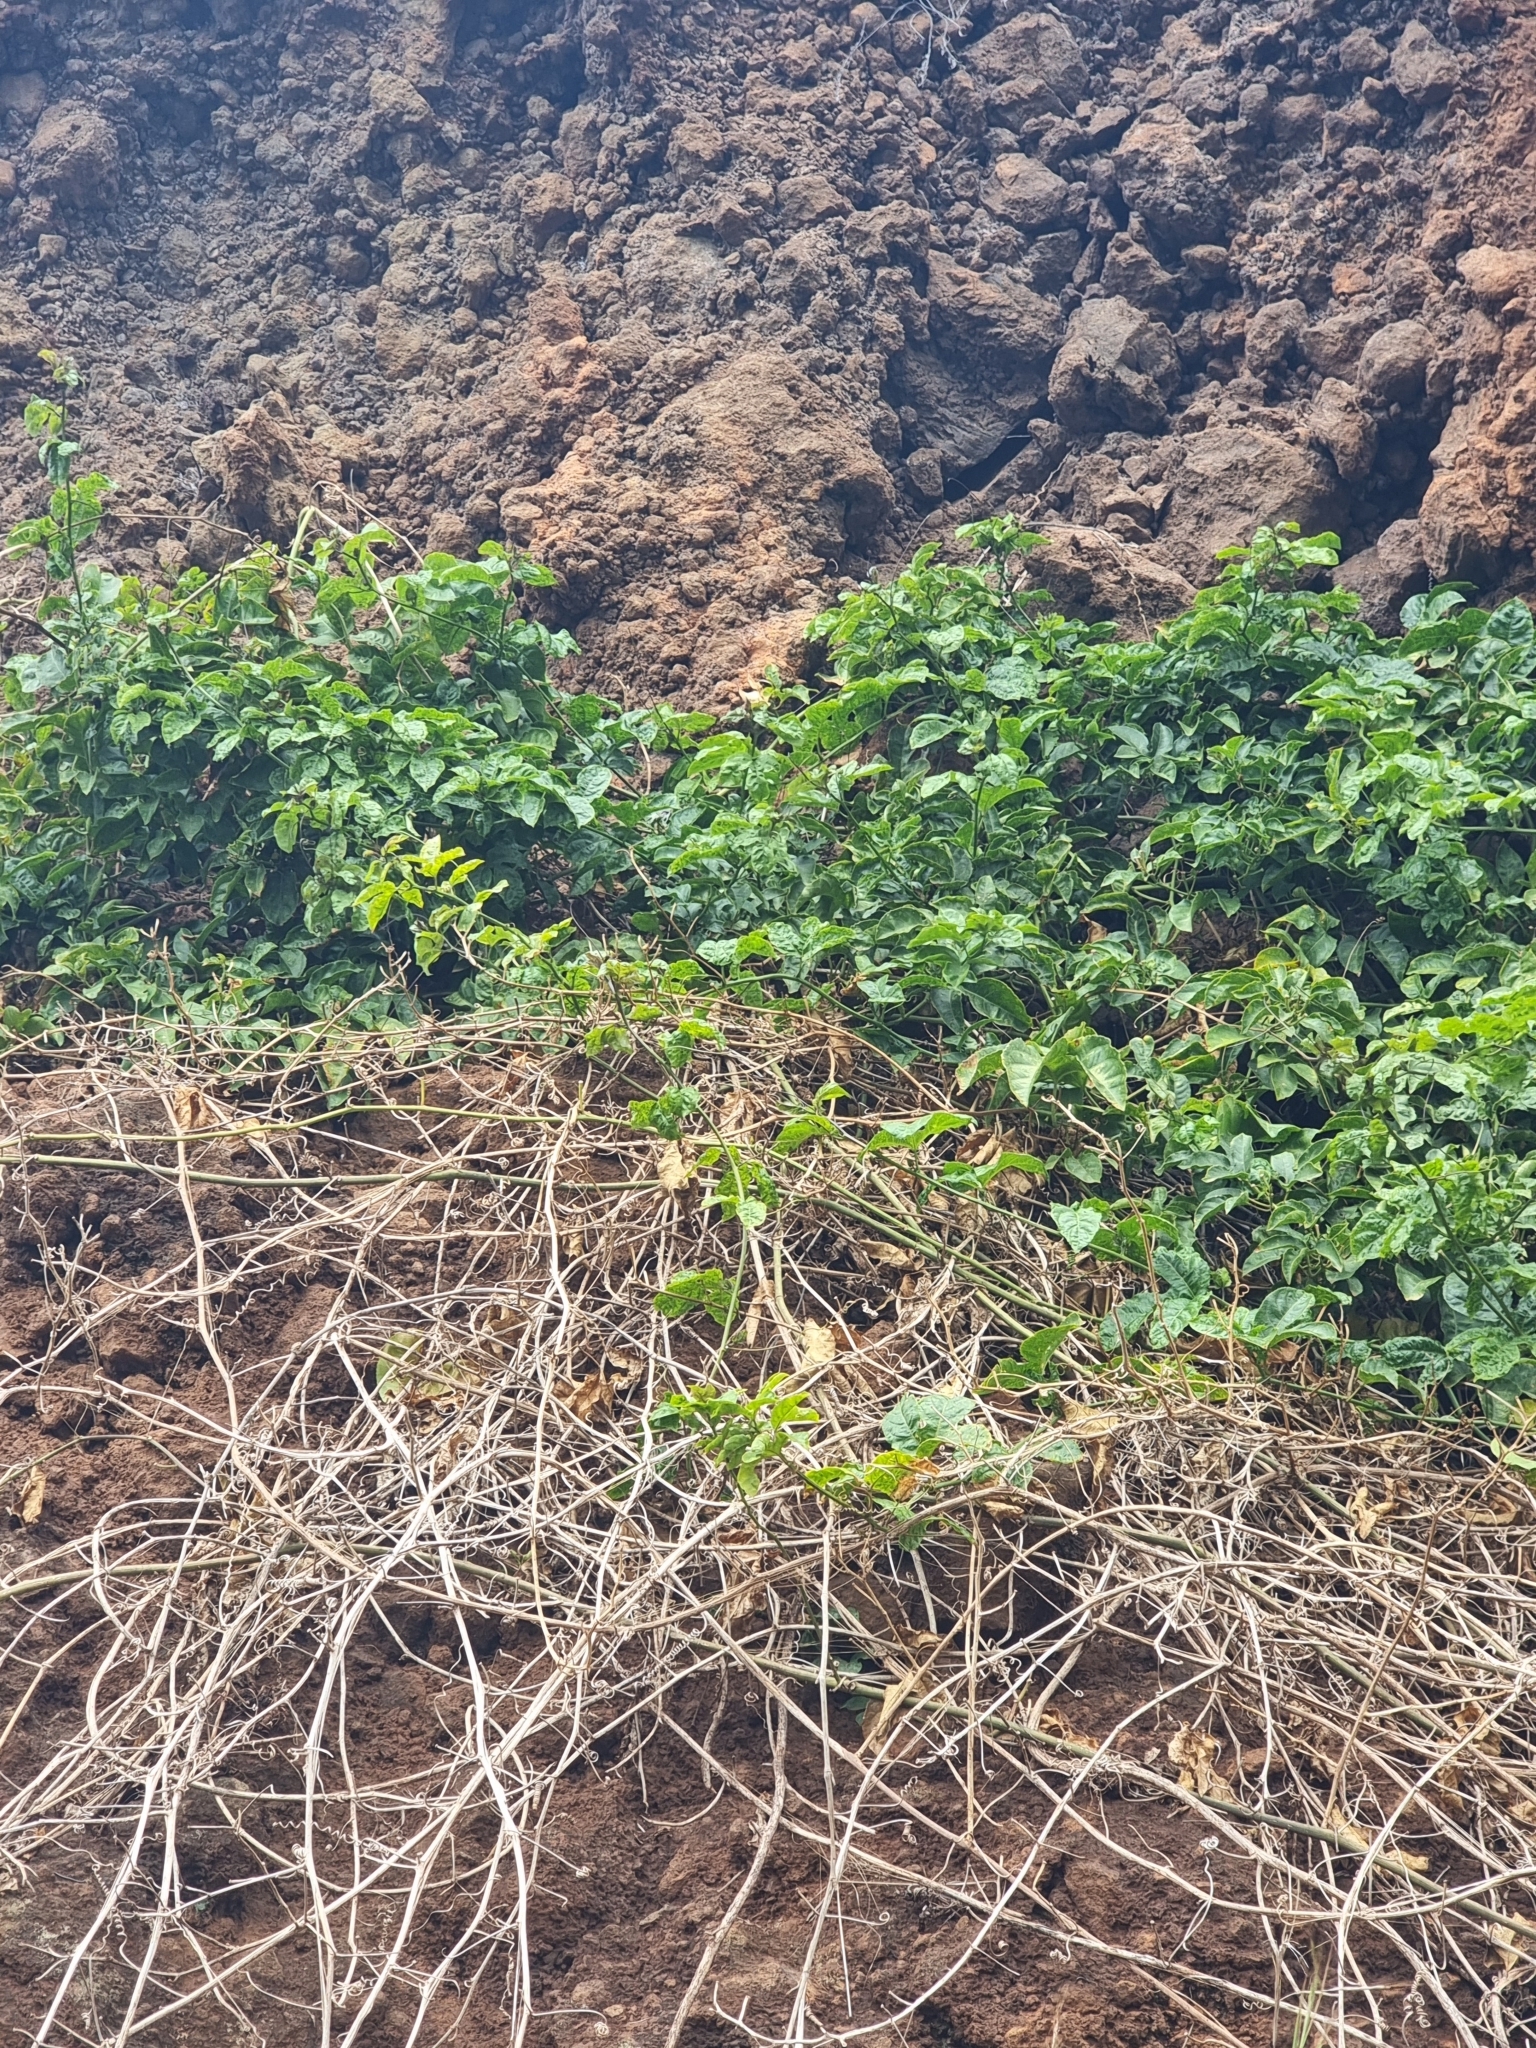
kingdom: Plantae
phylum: Tracheophyta
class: Magnoliopsida
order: Malpighiales
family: Passifloraceae
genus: Passiflora
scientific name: Passiflora edulis
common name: Purple granadilla
